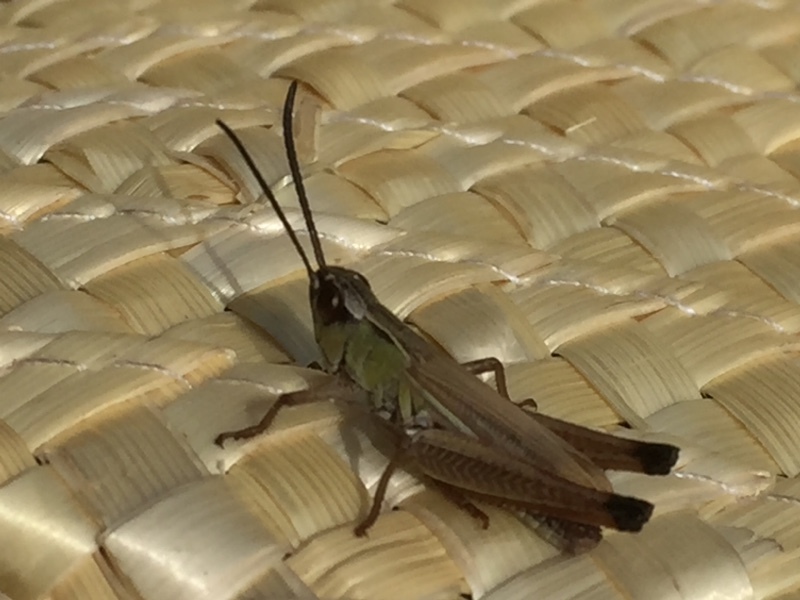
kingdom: Animalia
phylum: Arthropoda
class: Insecta
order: Orthoptera
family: Acrididae
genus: Pseudochorthippus
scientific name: Pseudochorthippus parallelus
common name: Meadow grasshopper
